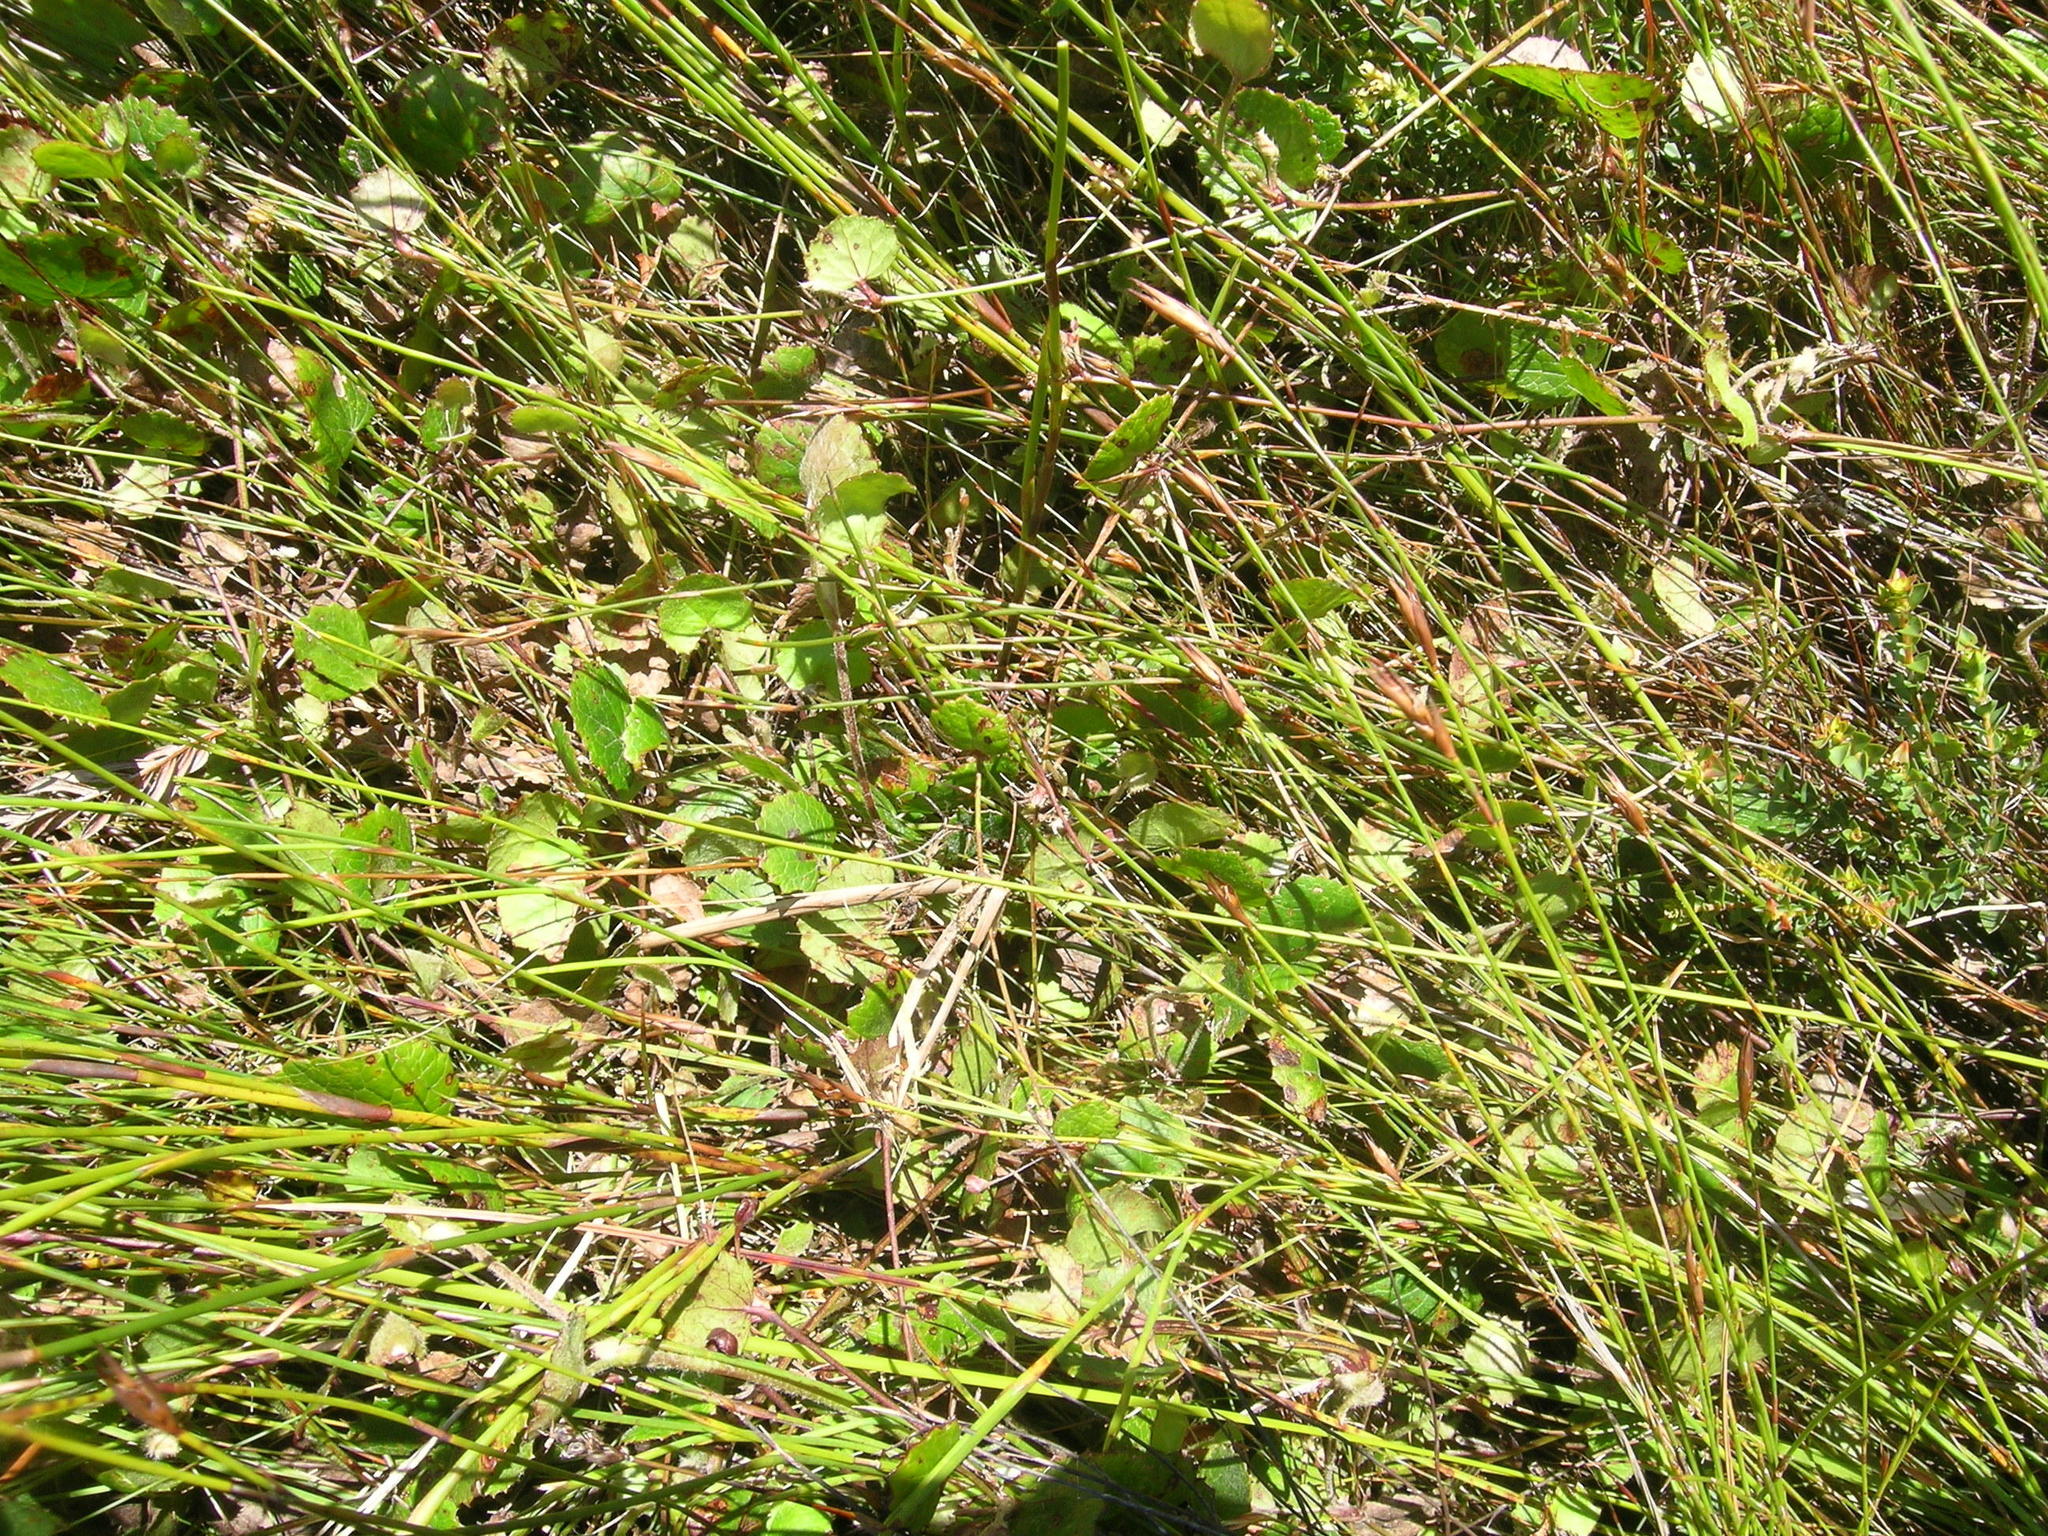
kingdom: Plantae
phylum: Tracheophyta
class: Magnoliopsida
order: Apiales
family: Apiaceae
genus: Centella
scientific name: Centella eriantha
